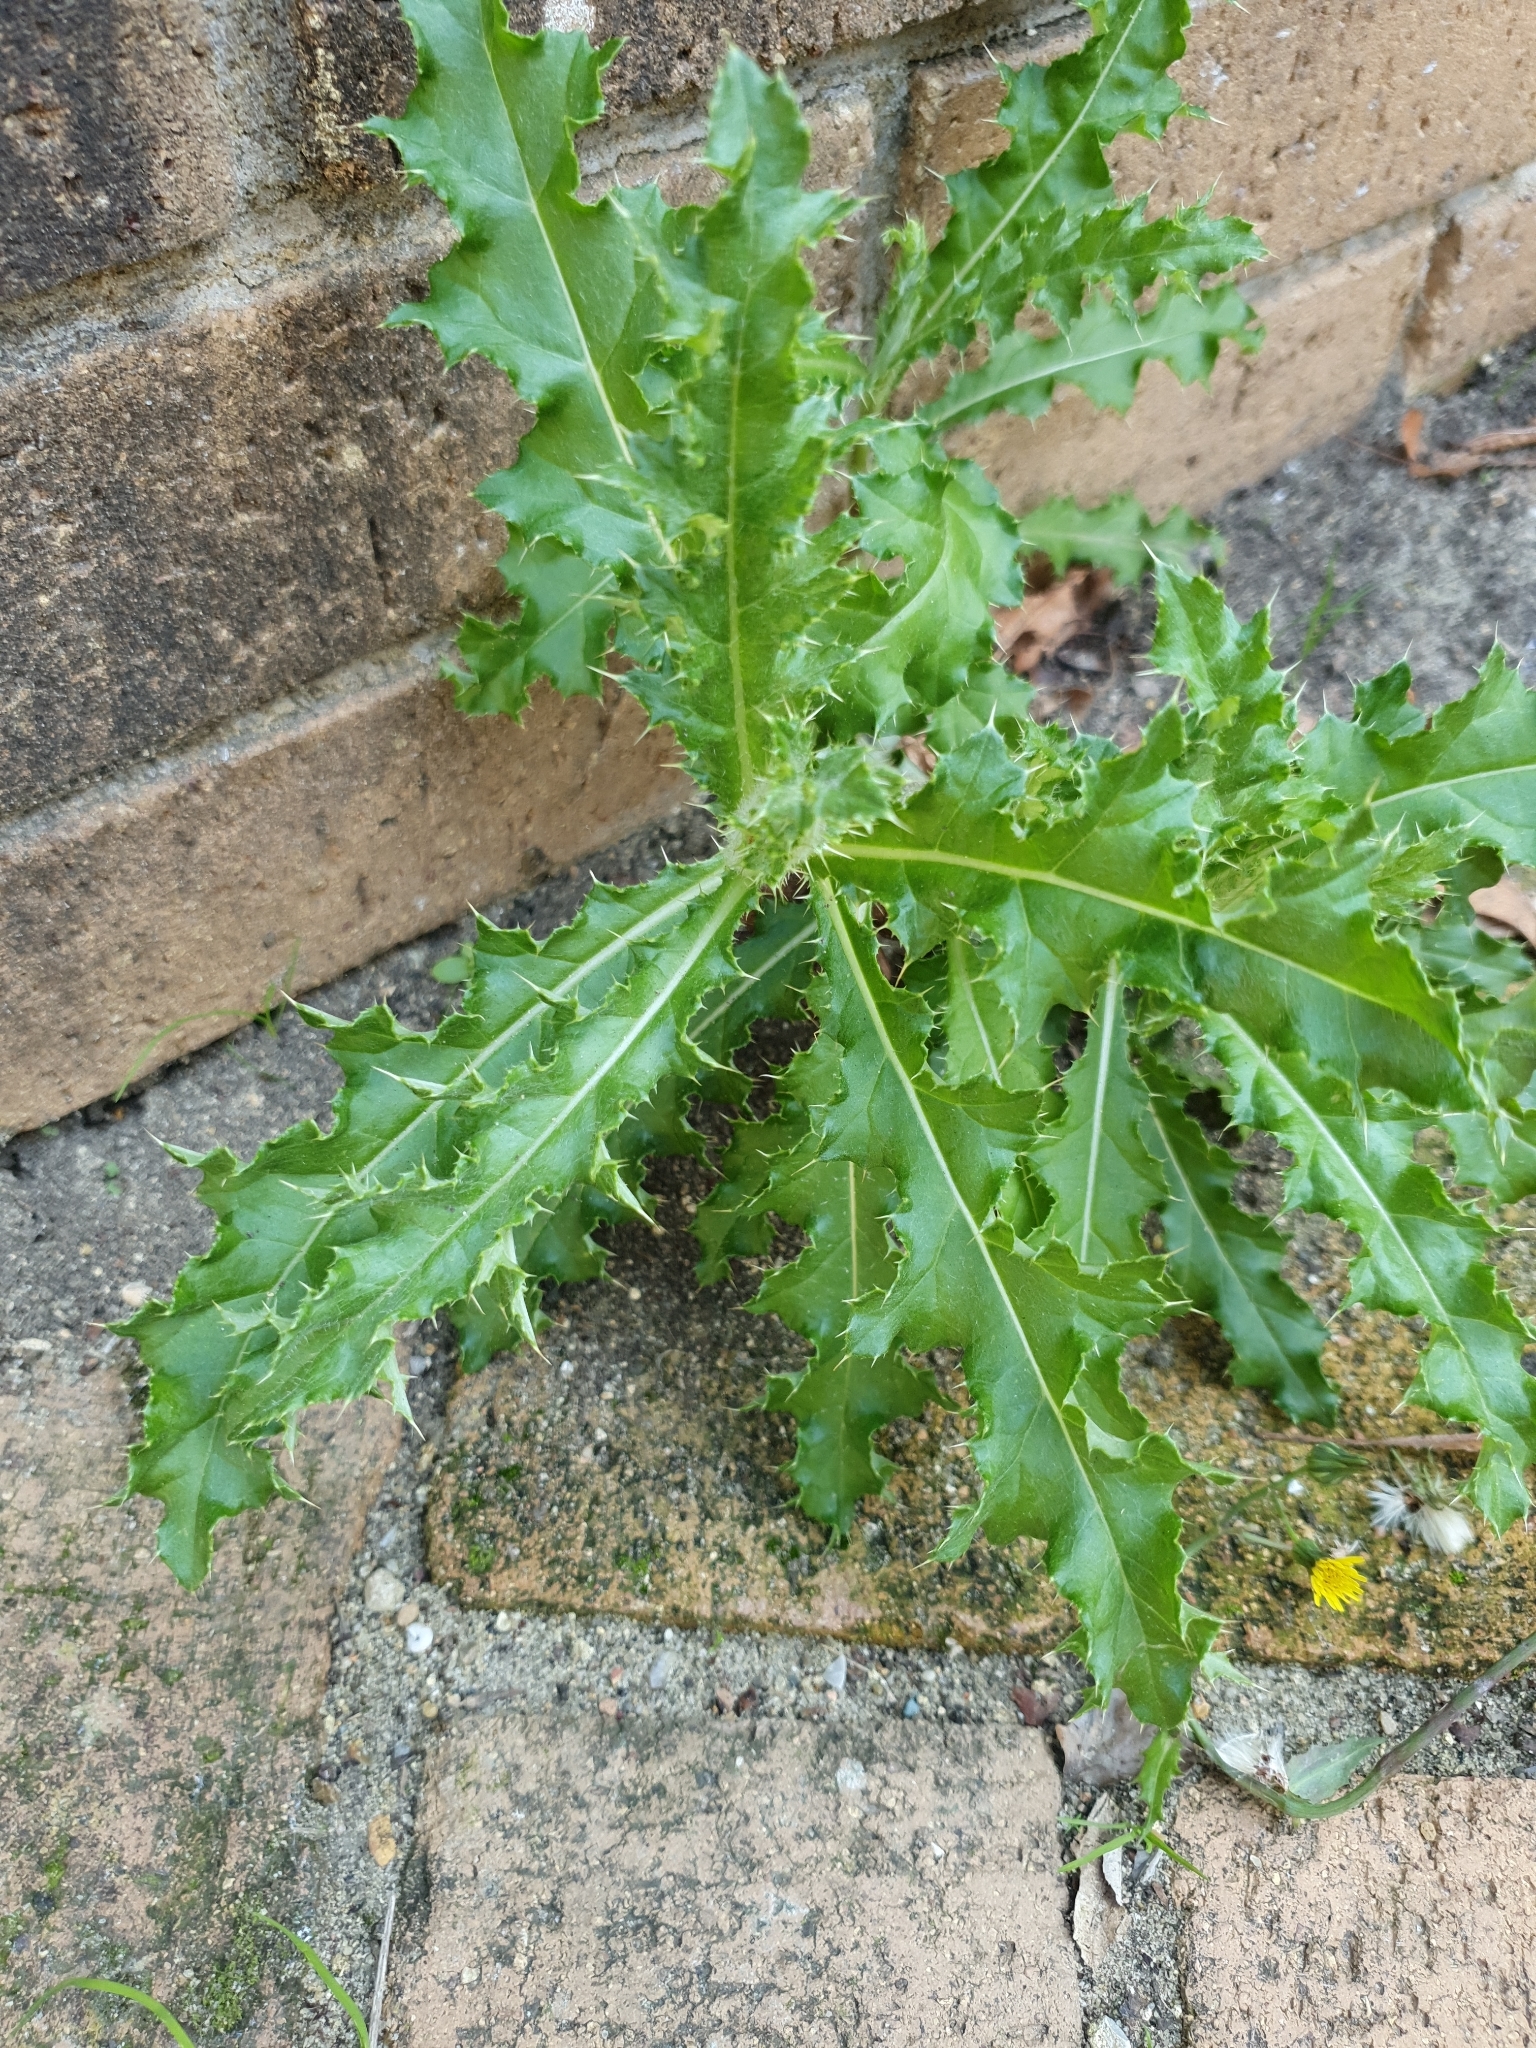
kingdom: Plantae
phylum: Tracheophyta
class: Magnoliopsida
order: Asterales
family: Asteraceae
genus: Cirsium
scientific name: Cirsium arvense
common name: Creeping thistle
